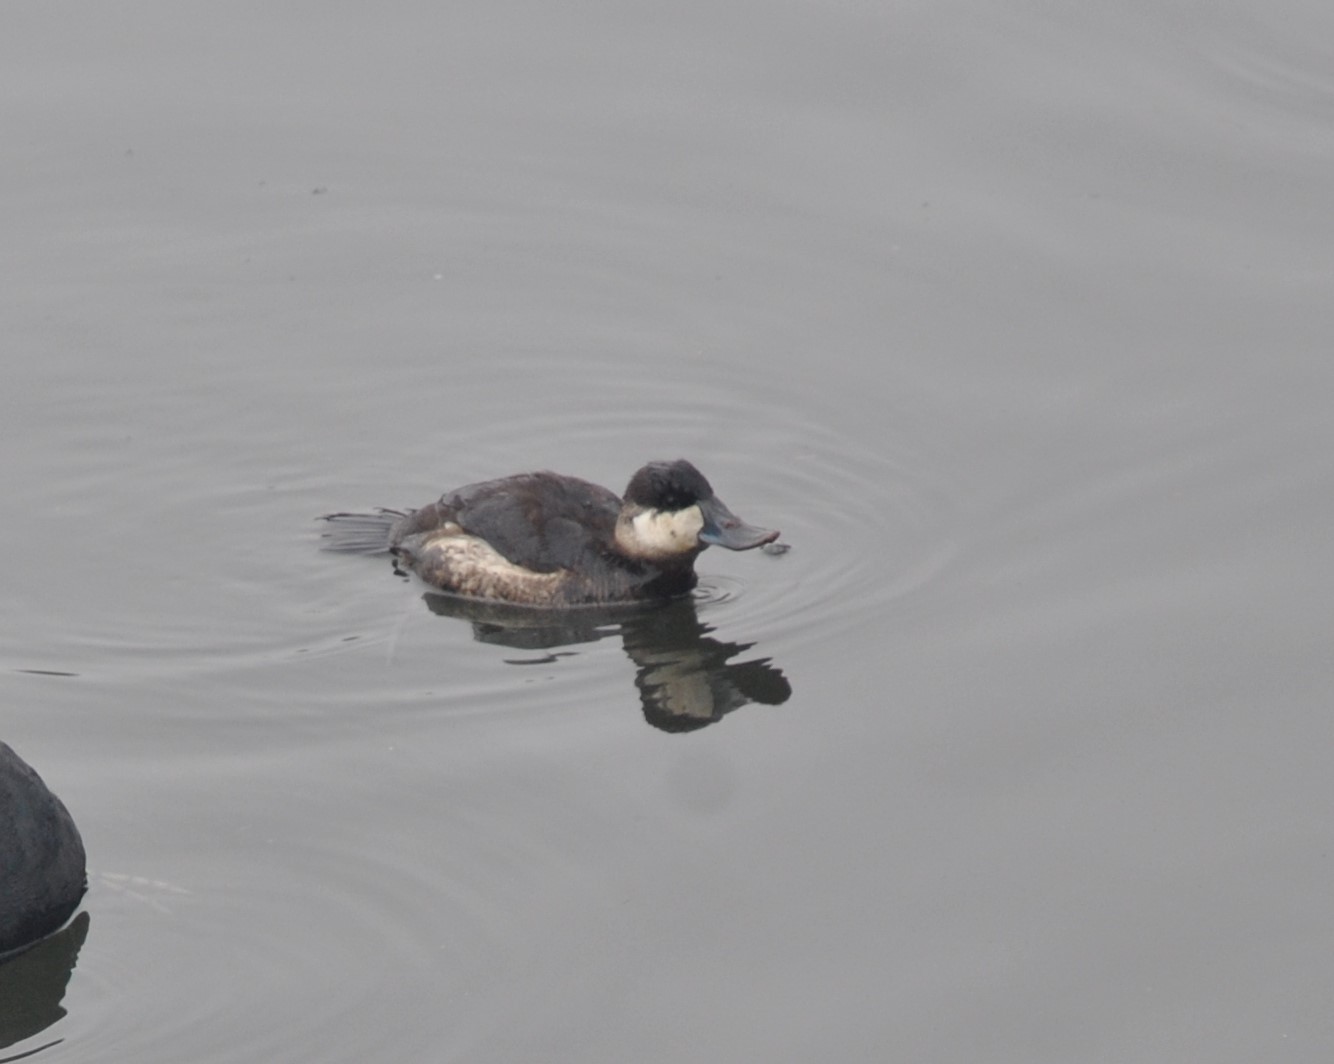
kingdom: Animalia
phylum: Chordata
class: Aves
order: Anseriformes
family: Anatidae
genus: Oxyura
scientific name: Oxyura jamaicensis
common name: Ruddy duck
